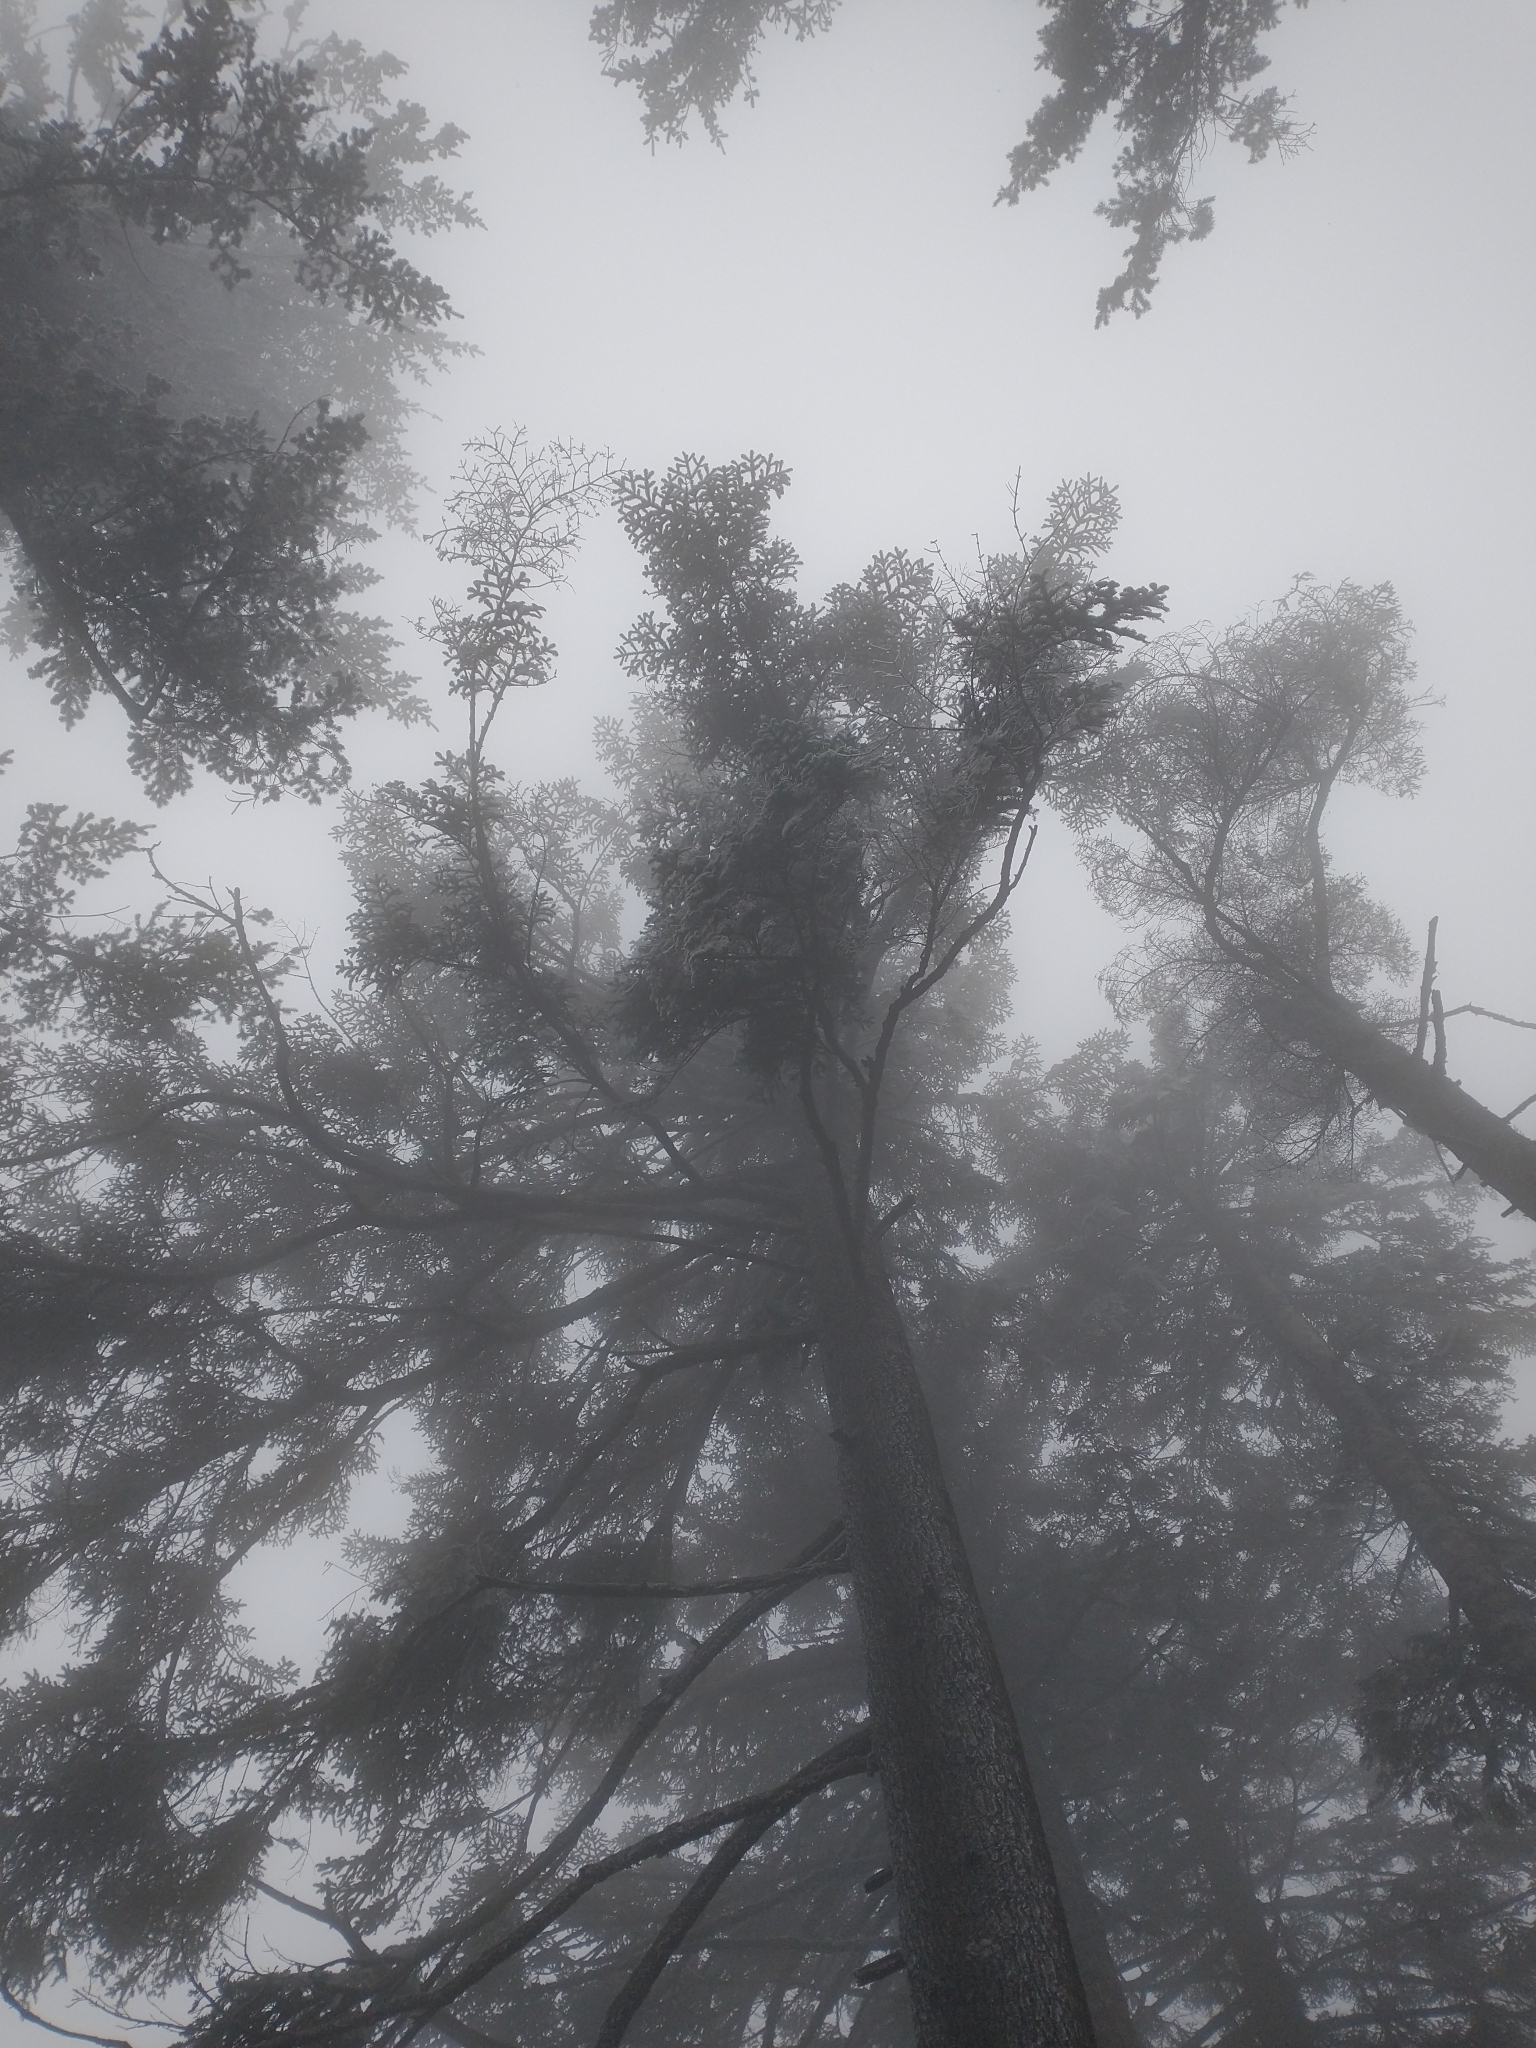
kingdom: Plantae
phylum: Tracheophyta
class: Pinopsida
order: Pinales
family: Pinaceae
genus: Abies
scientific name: Abies procera
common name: Noble fir
